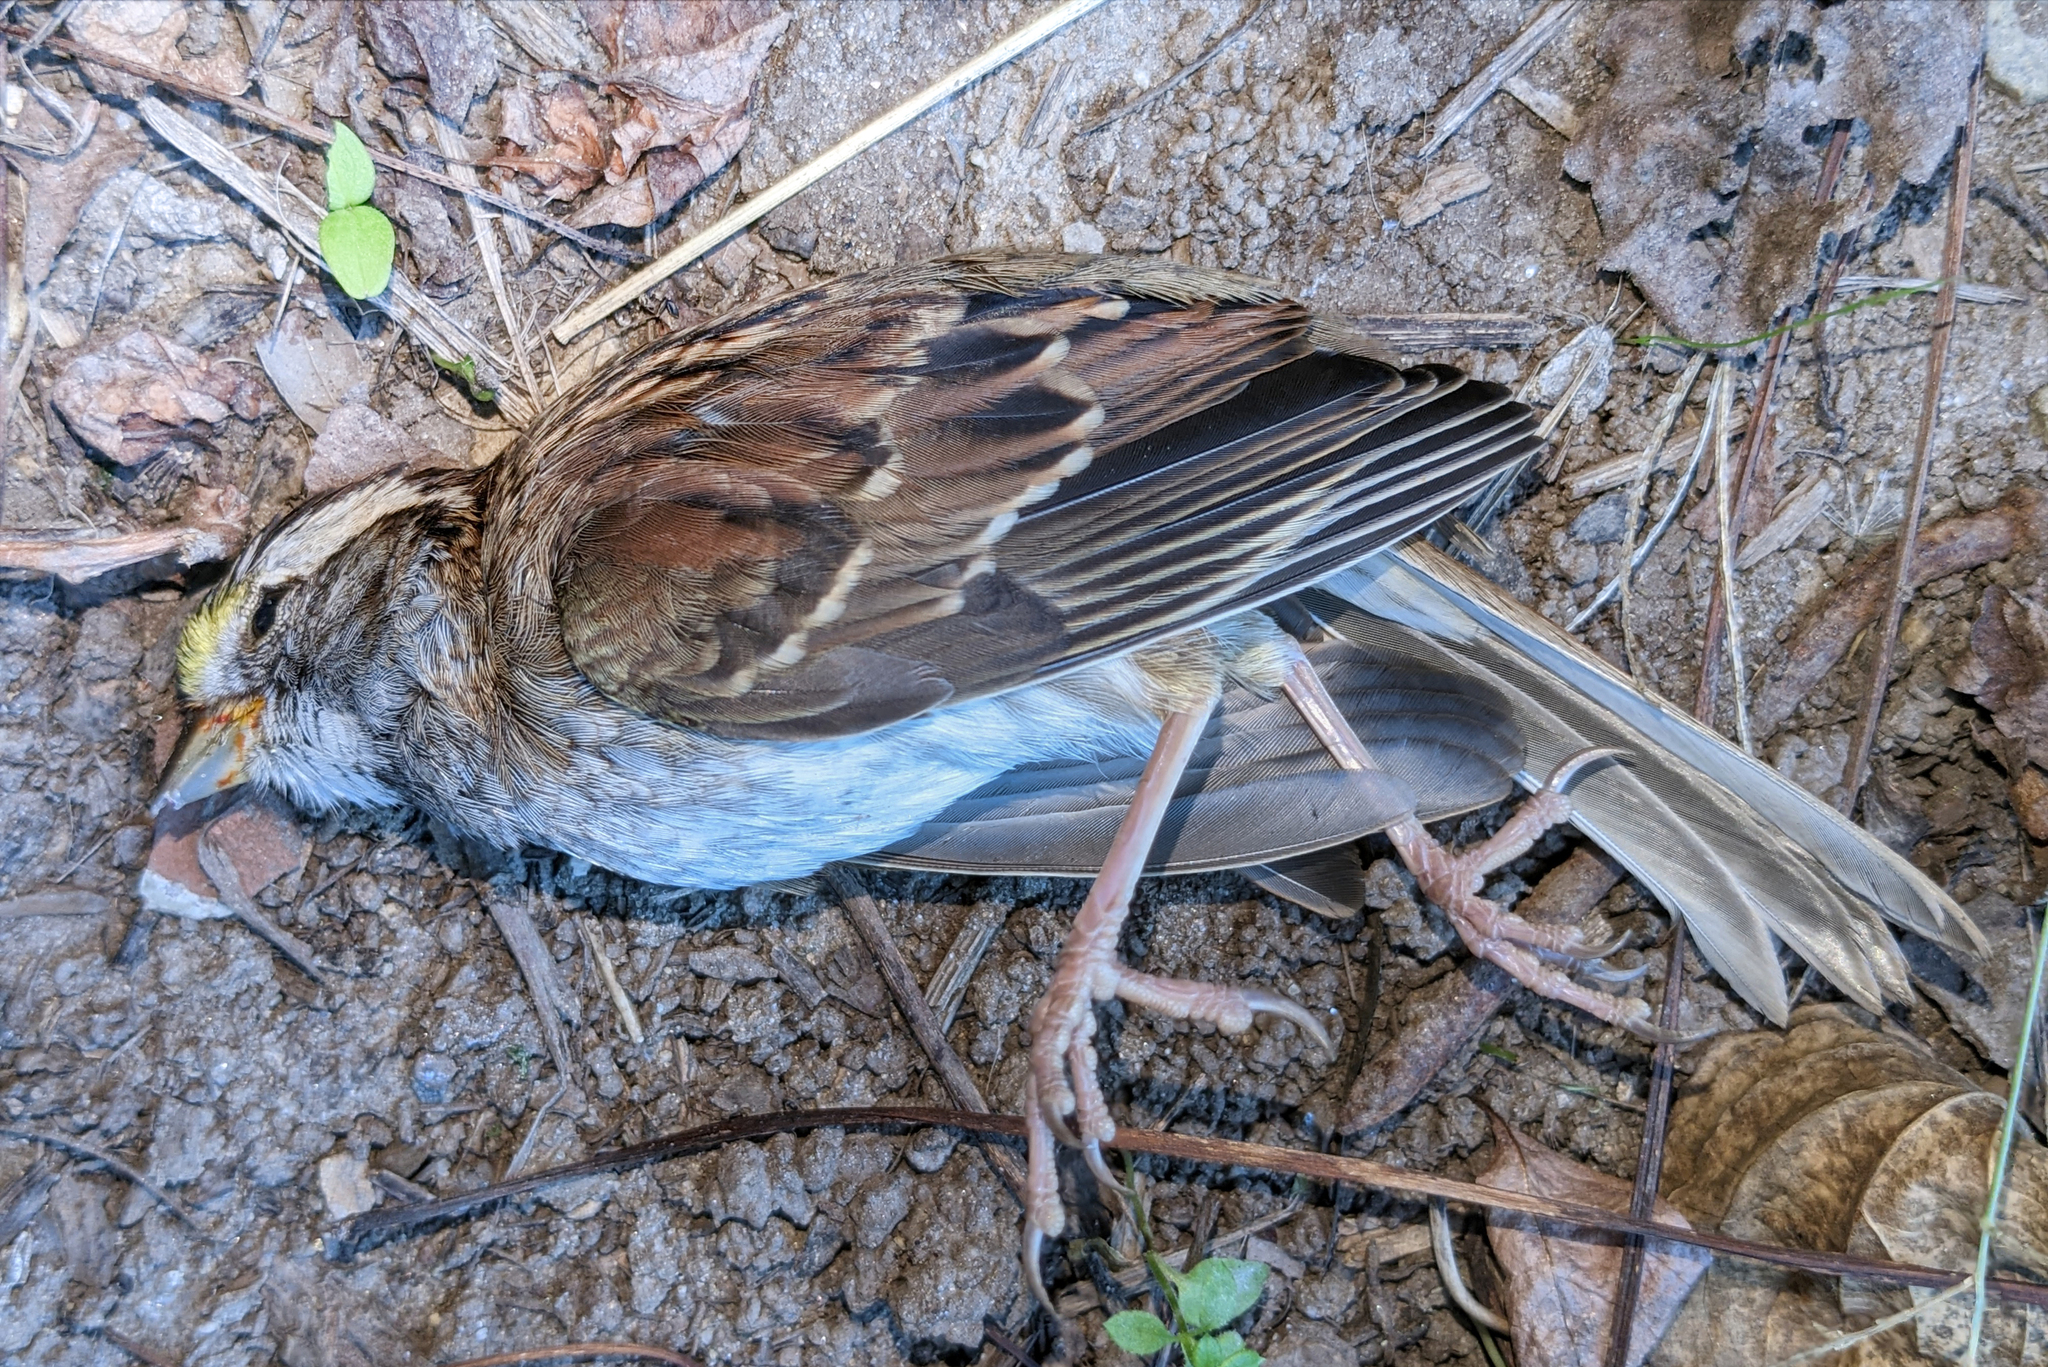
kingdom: Animalia
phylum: Chordata
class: Aves
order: Passeriformes
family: Passerellidae
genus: Zonotrichia
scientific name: Zonotrichia albicollis
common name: White-throated sparrow
